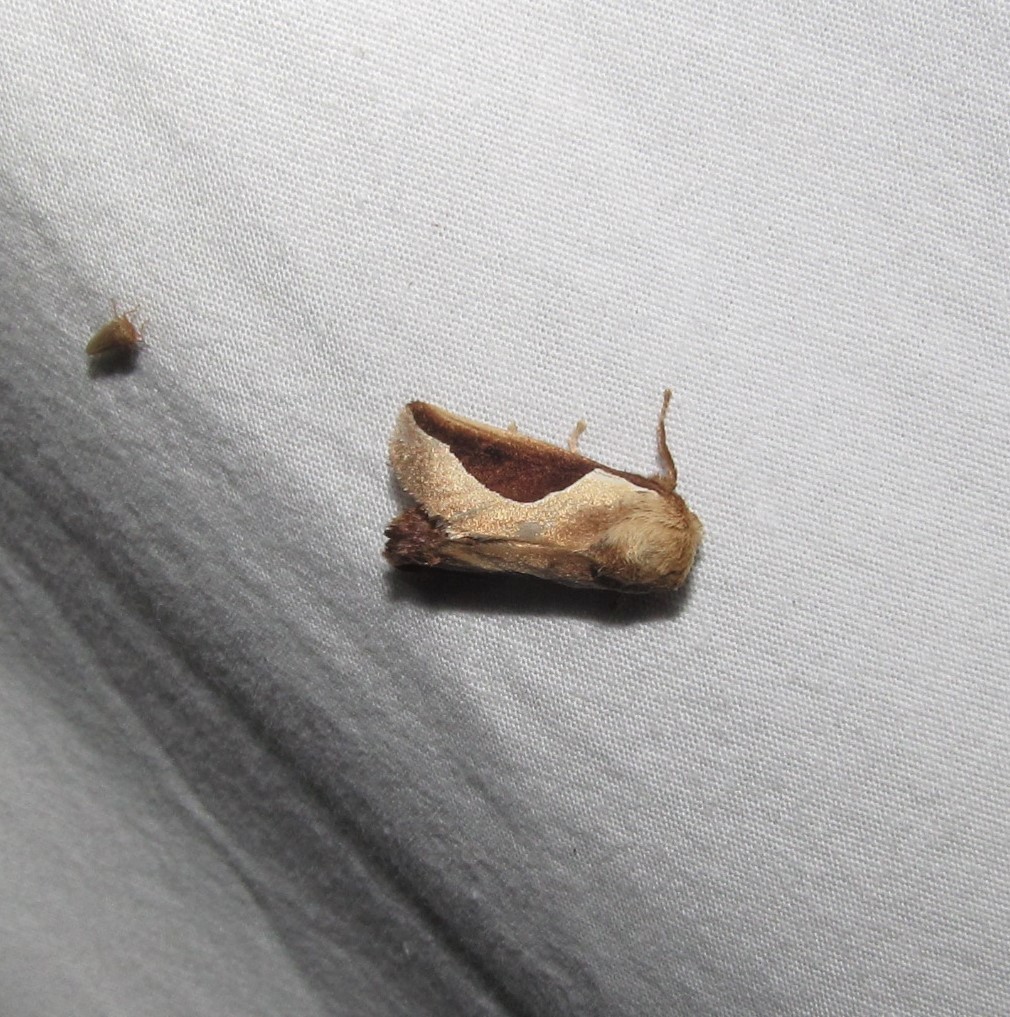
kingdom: Animalia
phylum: Arthropoda
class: Insecta
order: Lepidoptera
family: Limacodidae
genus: Prolimacodes
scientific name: Prolimacodes badia
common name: Skiff moth
